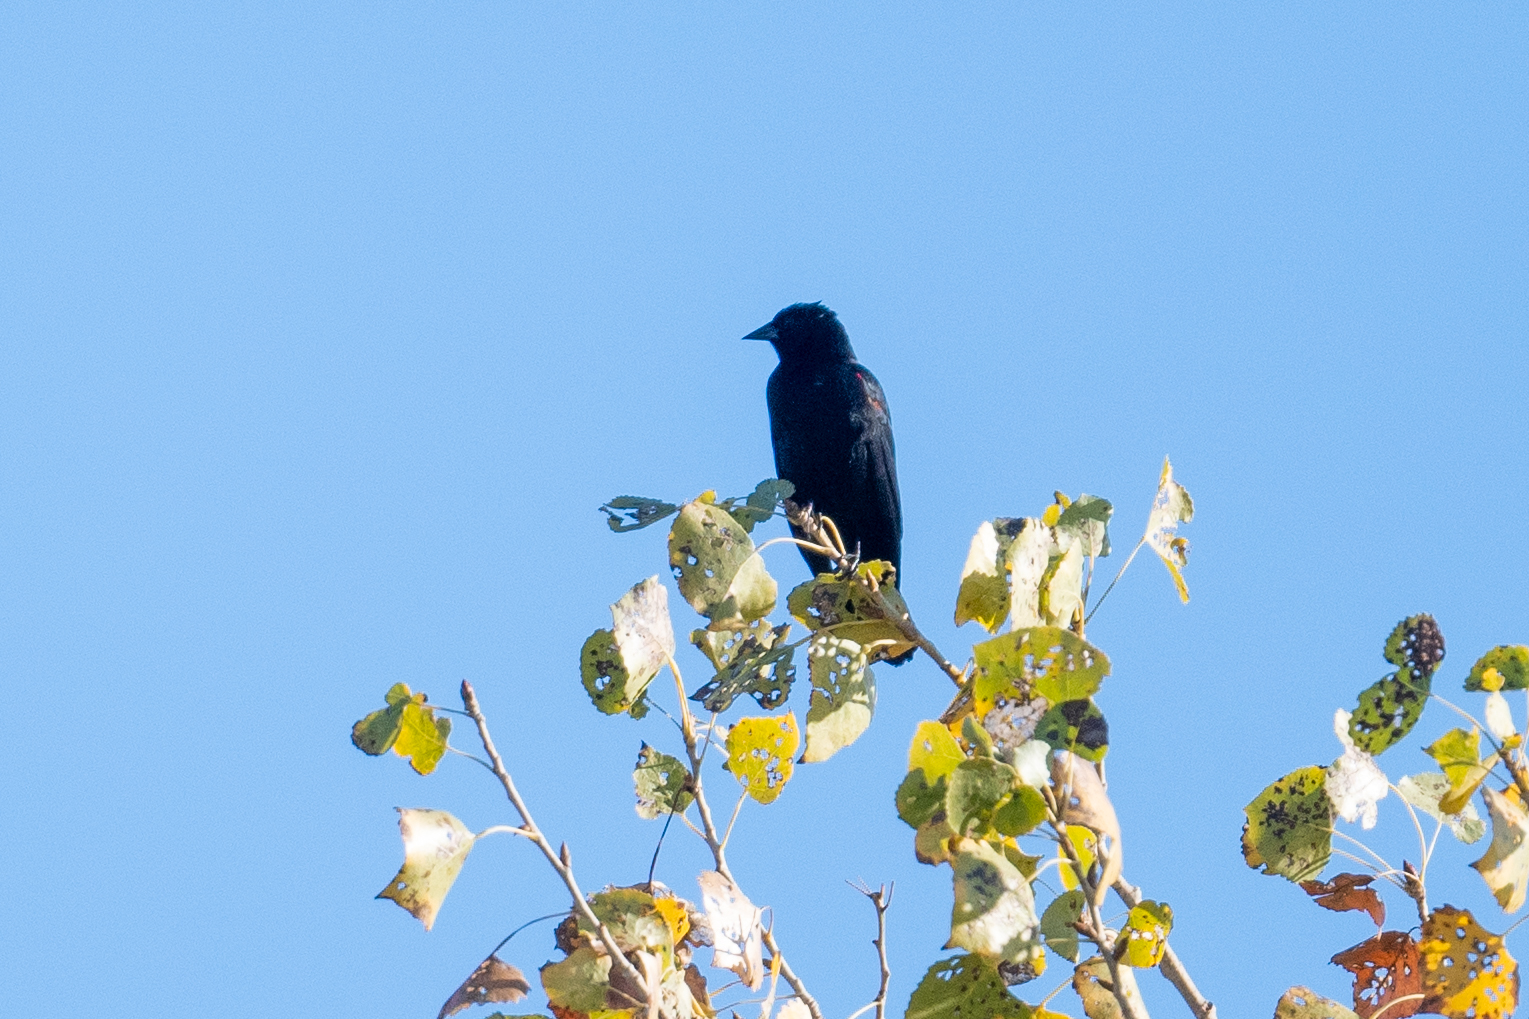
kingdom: Animalia
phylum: Chordata
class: Aves
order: Passeriformes
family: Icteridae
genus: Agelaius
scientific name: Agelaius phoeniceus
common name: Red-winged blackbird
